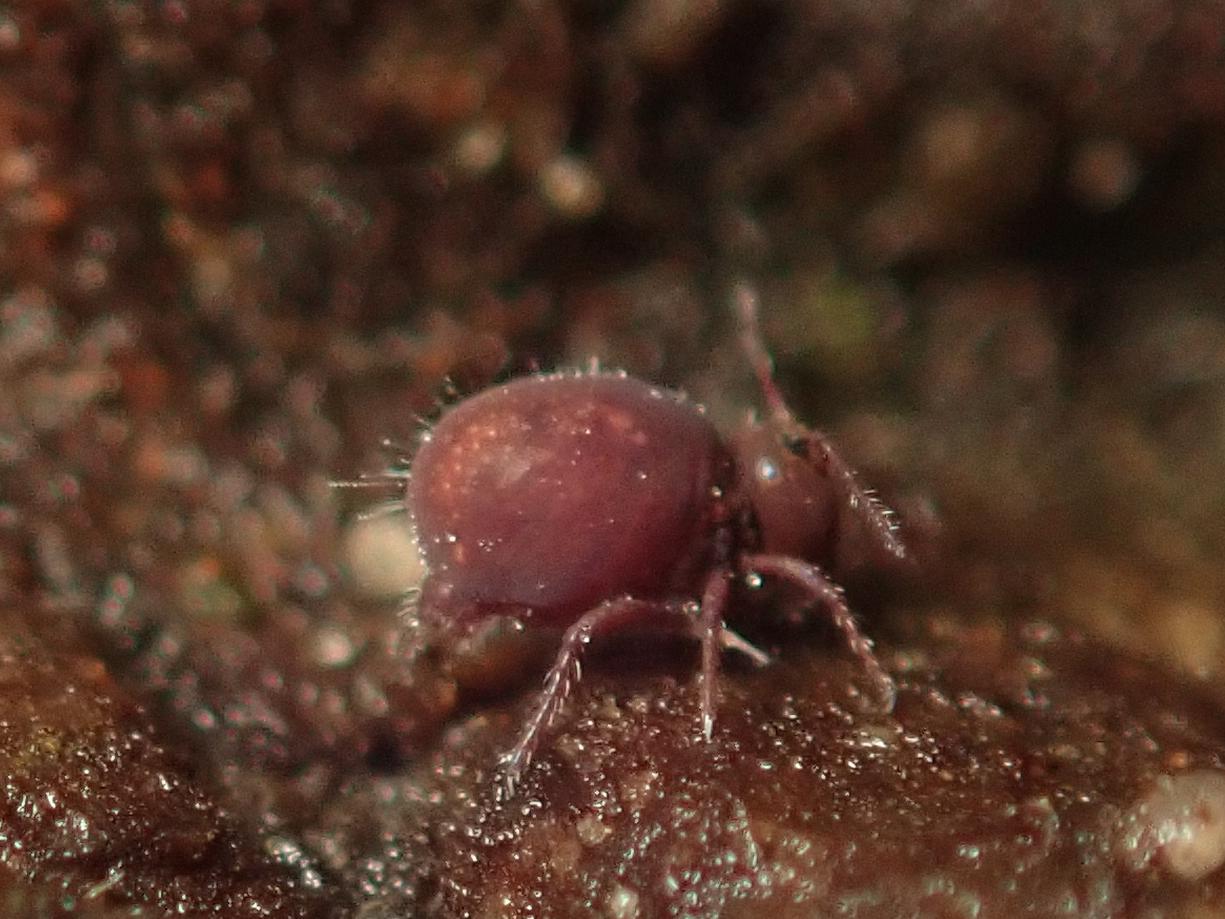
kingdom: Animalia
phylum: Arthropoda
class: Collembola
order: Symphypleona
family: Dicyrtomidae
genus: Dicyrtoma
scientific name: Dicyrtoma fusca
